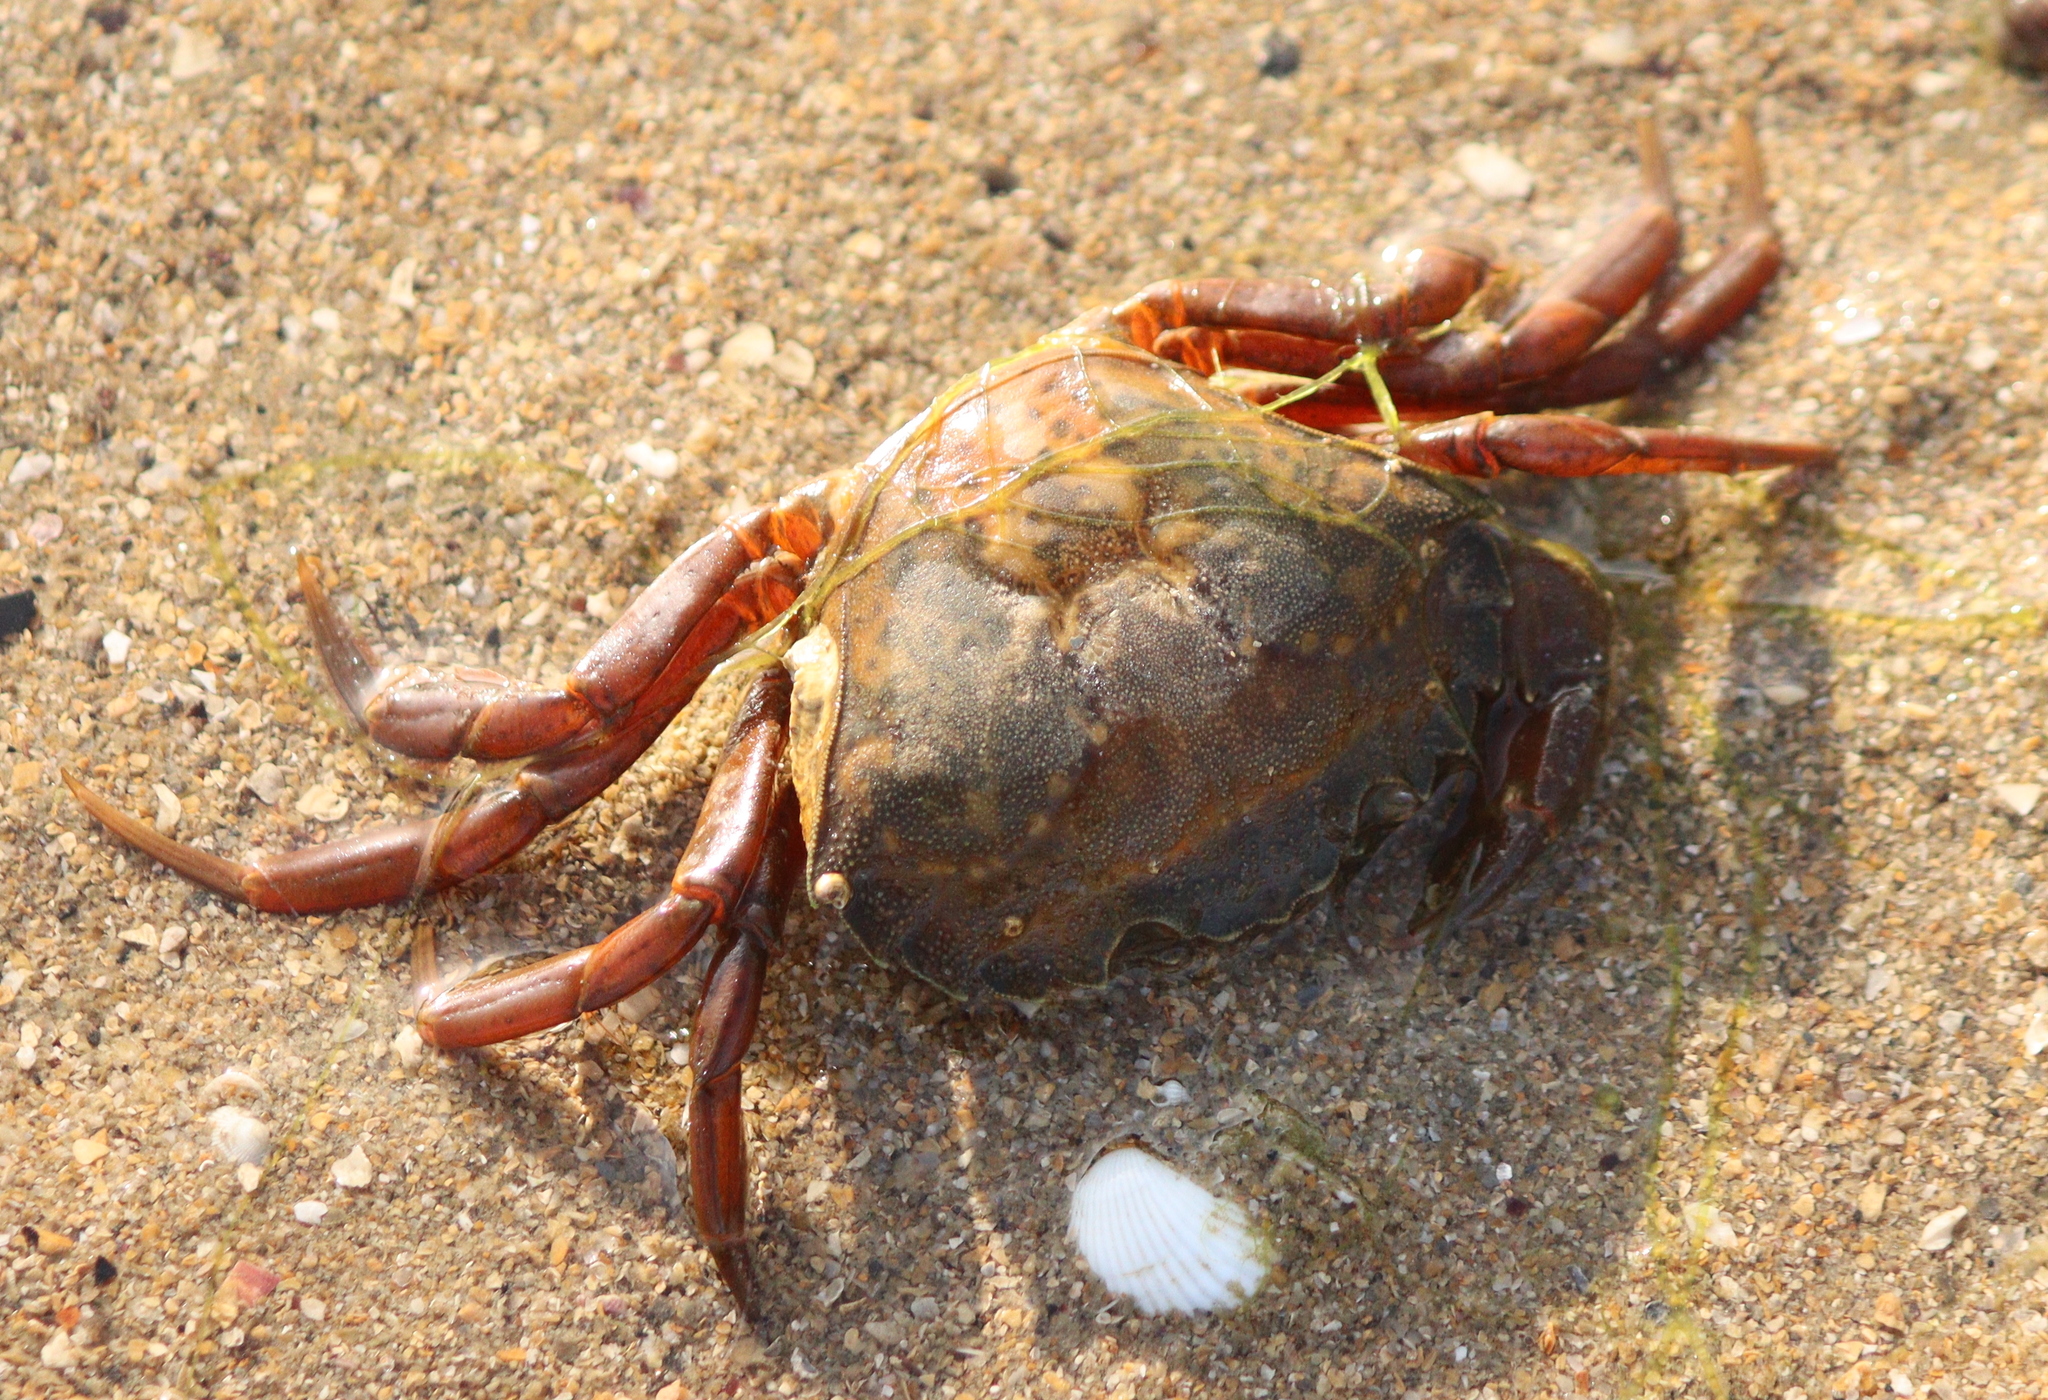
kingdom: Animalia
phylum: Arthropoda
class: Malacostraca
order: Decapoda
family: Carcinidae
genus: Carcinus
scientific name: Carcinus maenas
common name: European green crab
